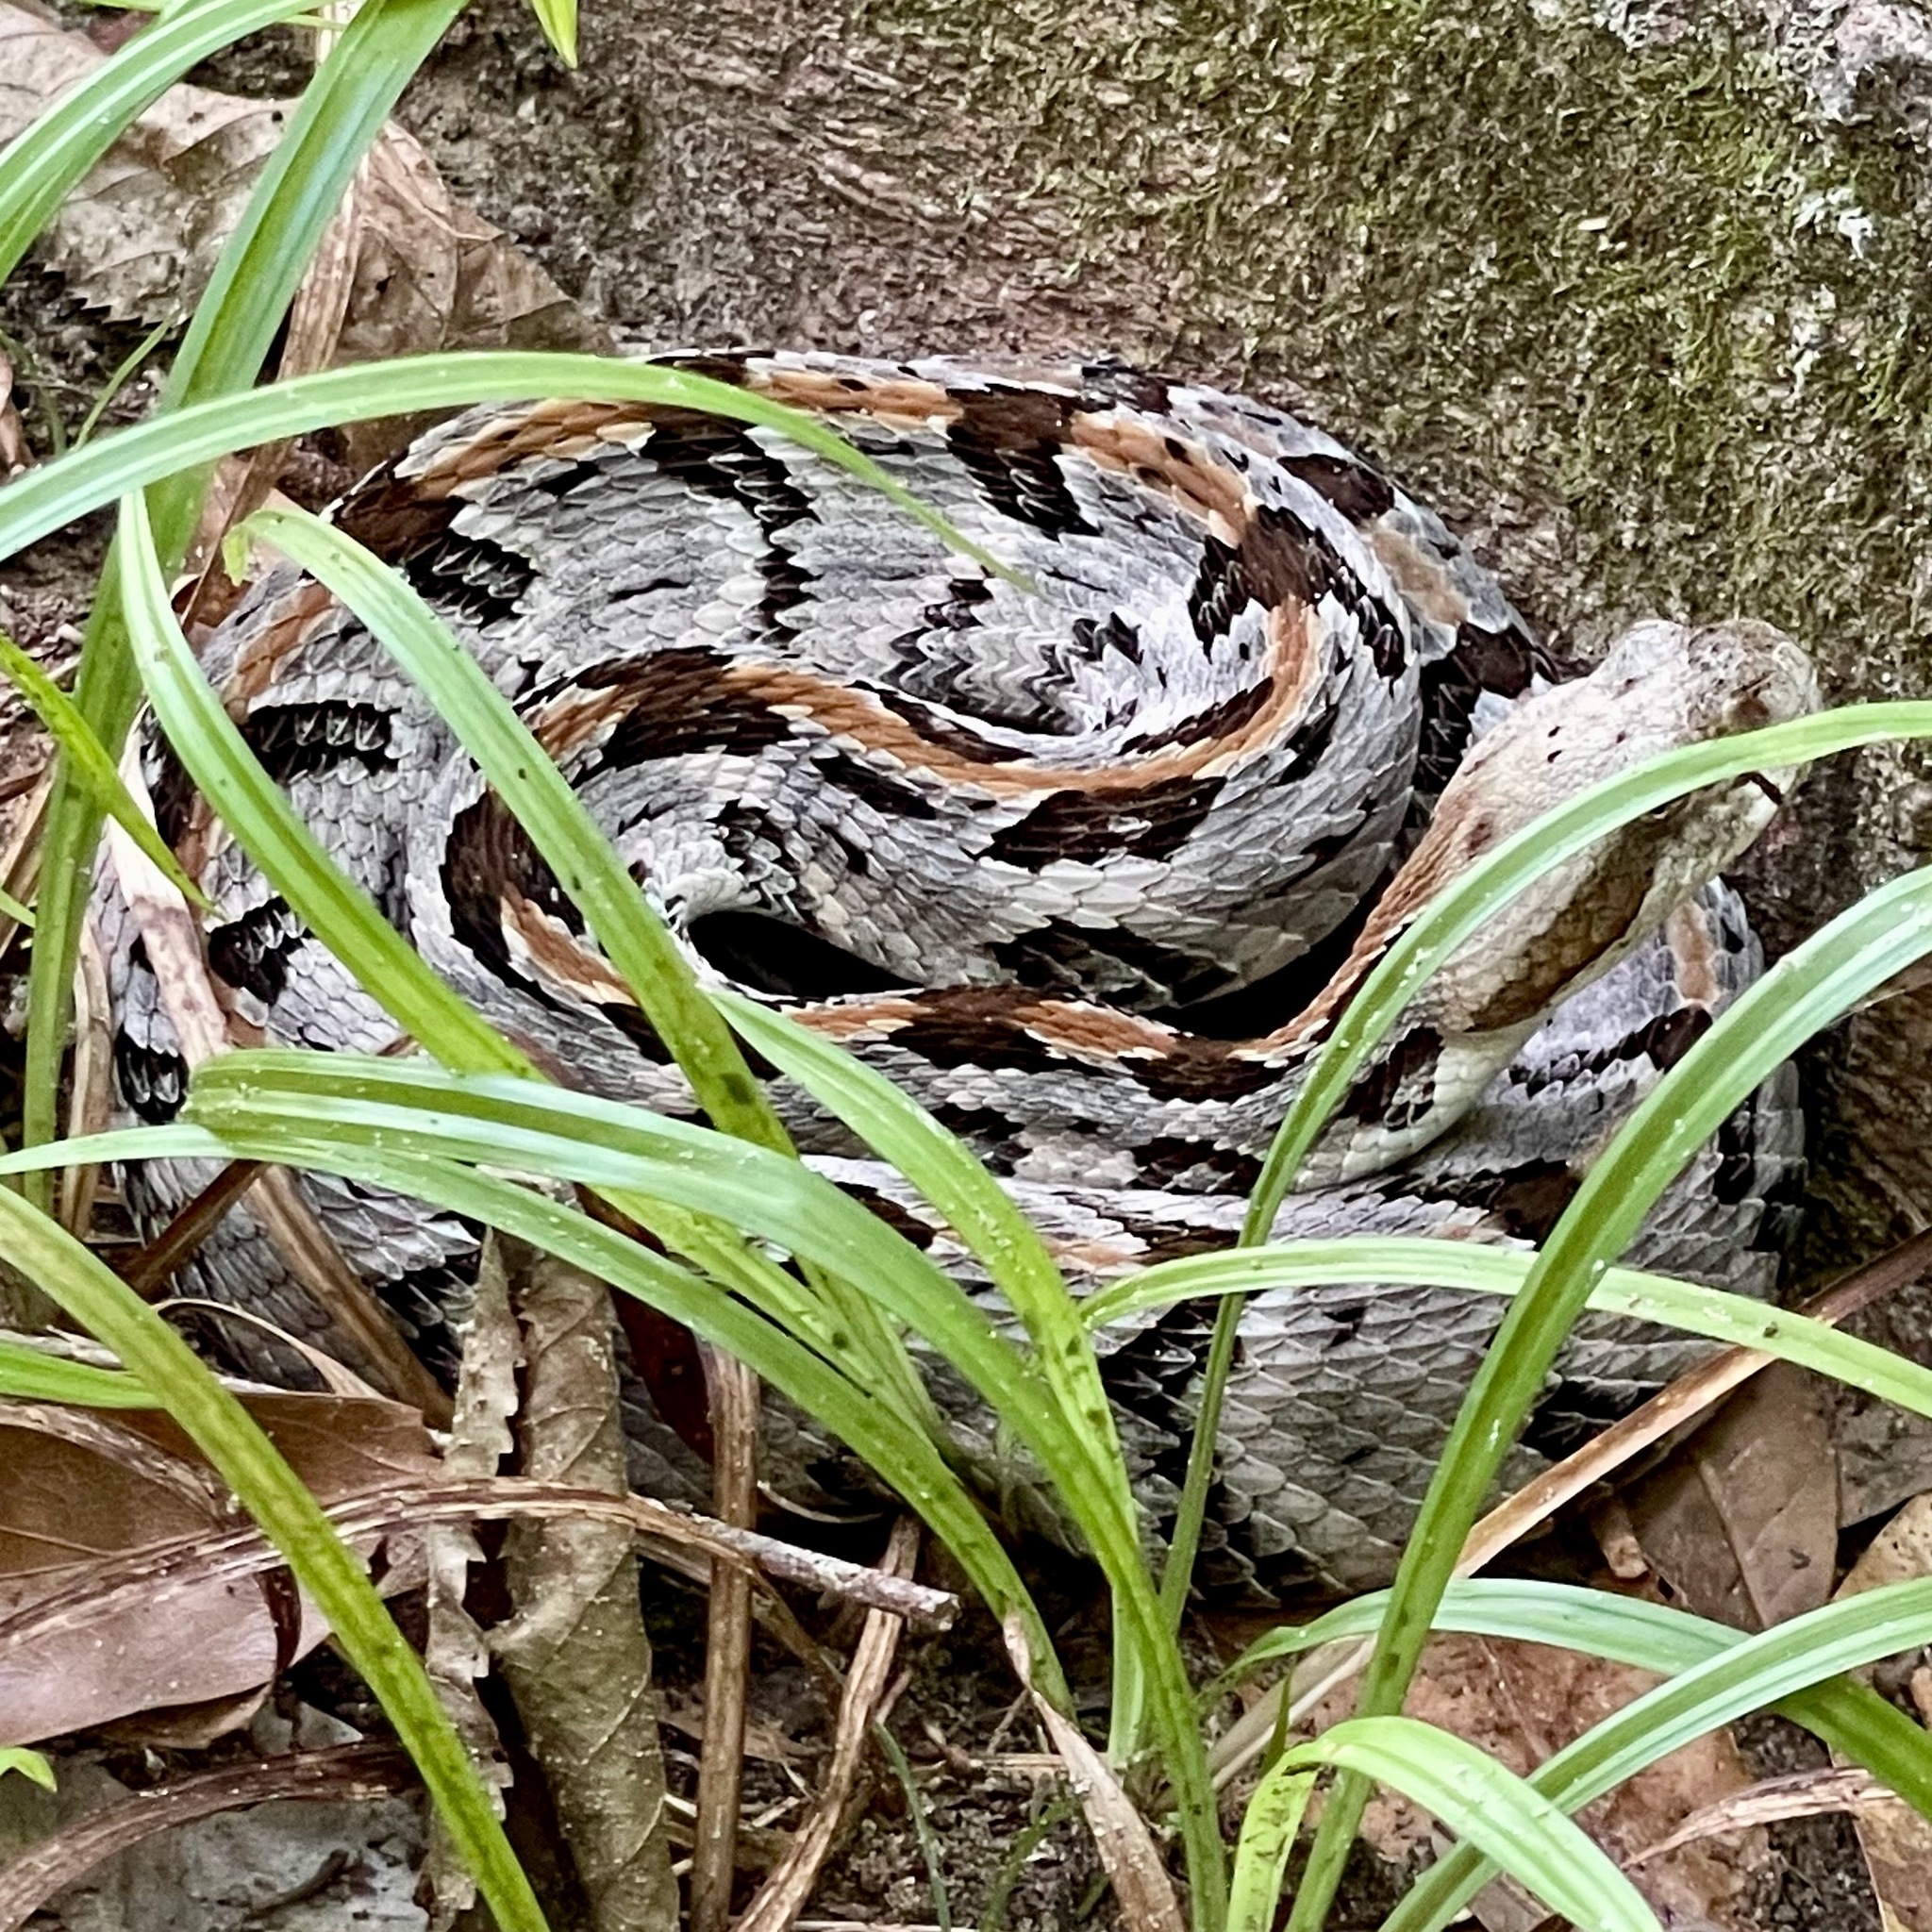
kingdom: Animalia
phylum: Chordata
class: Squamata
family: Viperidae
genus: Crotalus
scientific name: Crotalus horridus
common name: Timber rattlesnake
